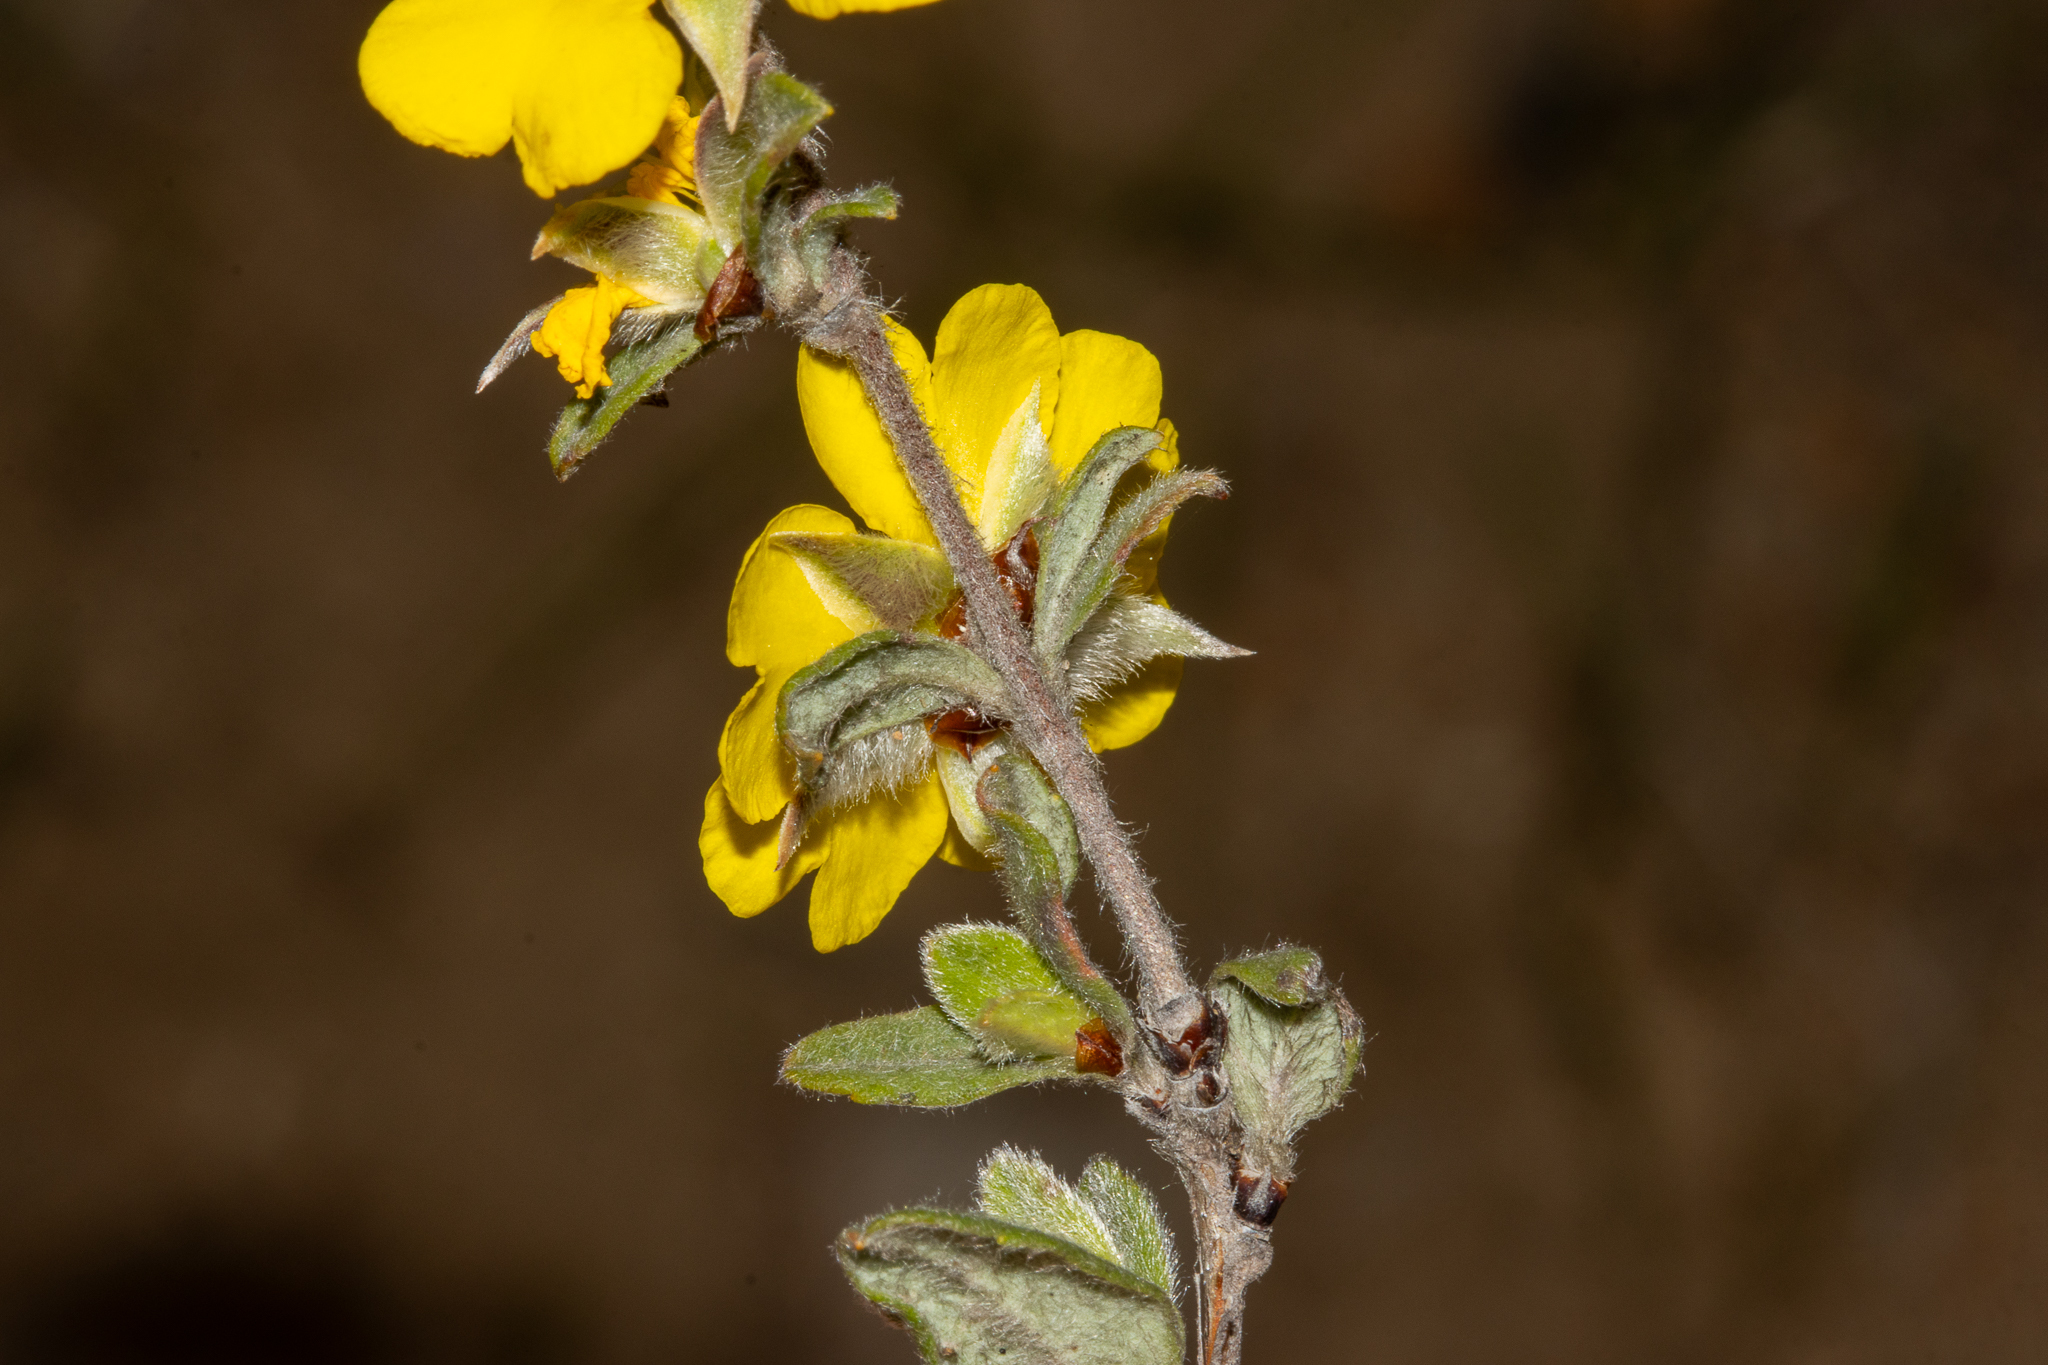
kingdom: Plantae
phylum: Tracheophyta
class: Magnoliopsida
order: Dilleniales
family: Dilleniaceae
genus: Hibbertia
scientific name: Hibbertia commutata
